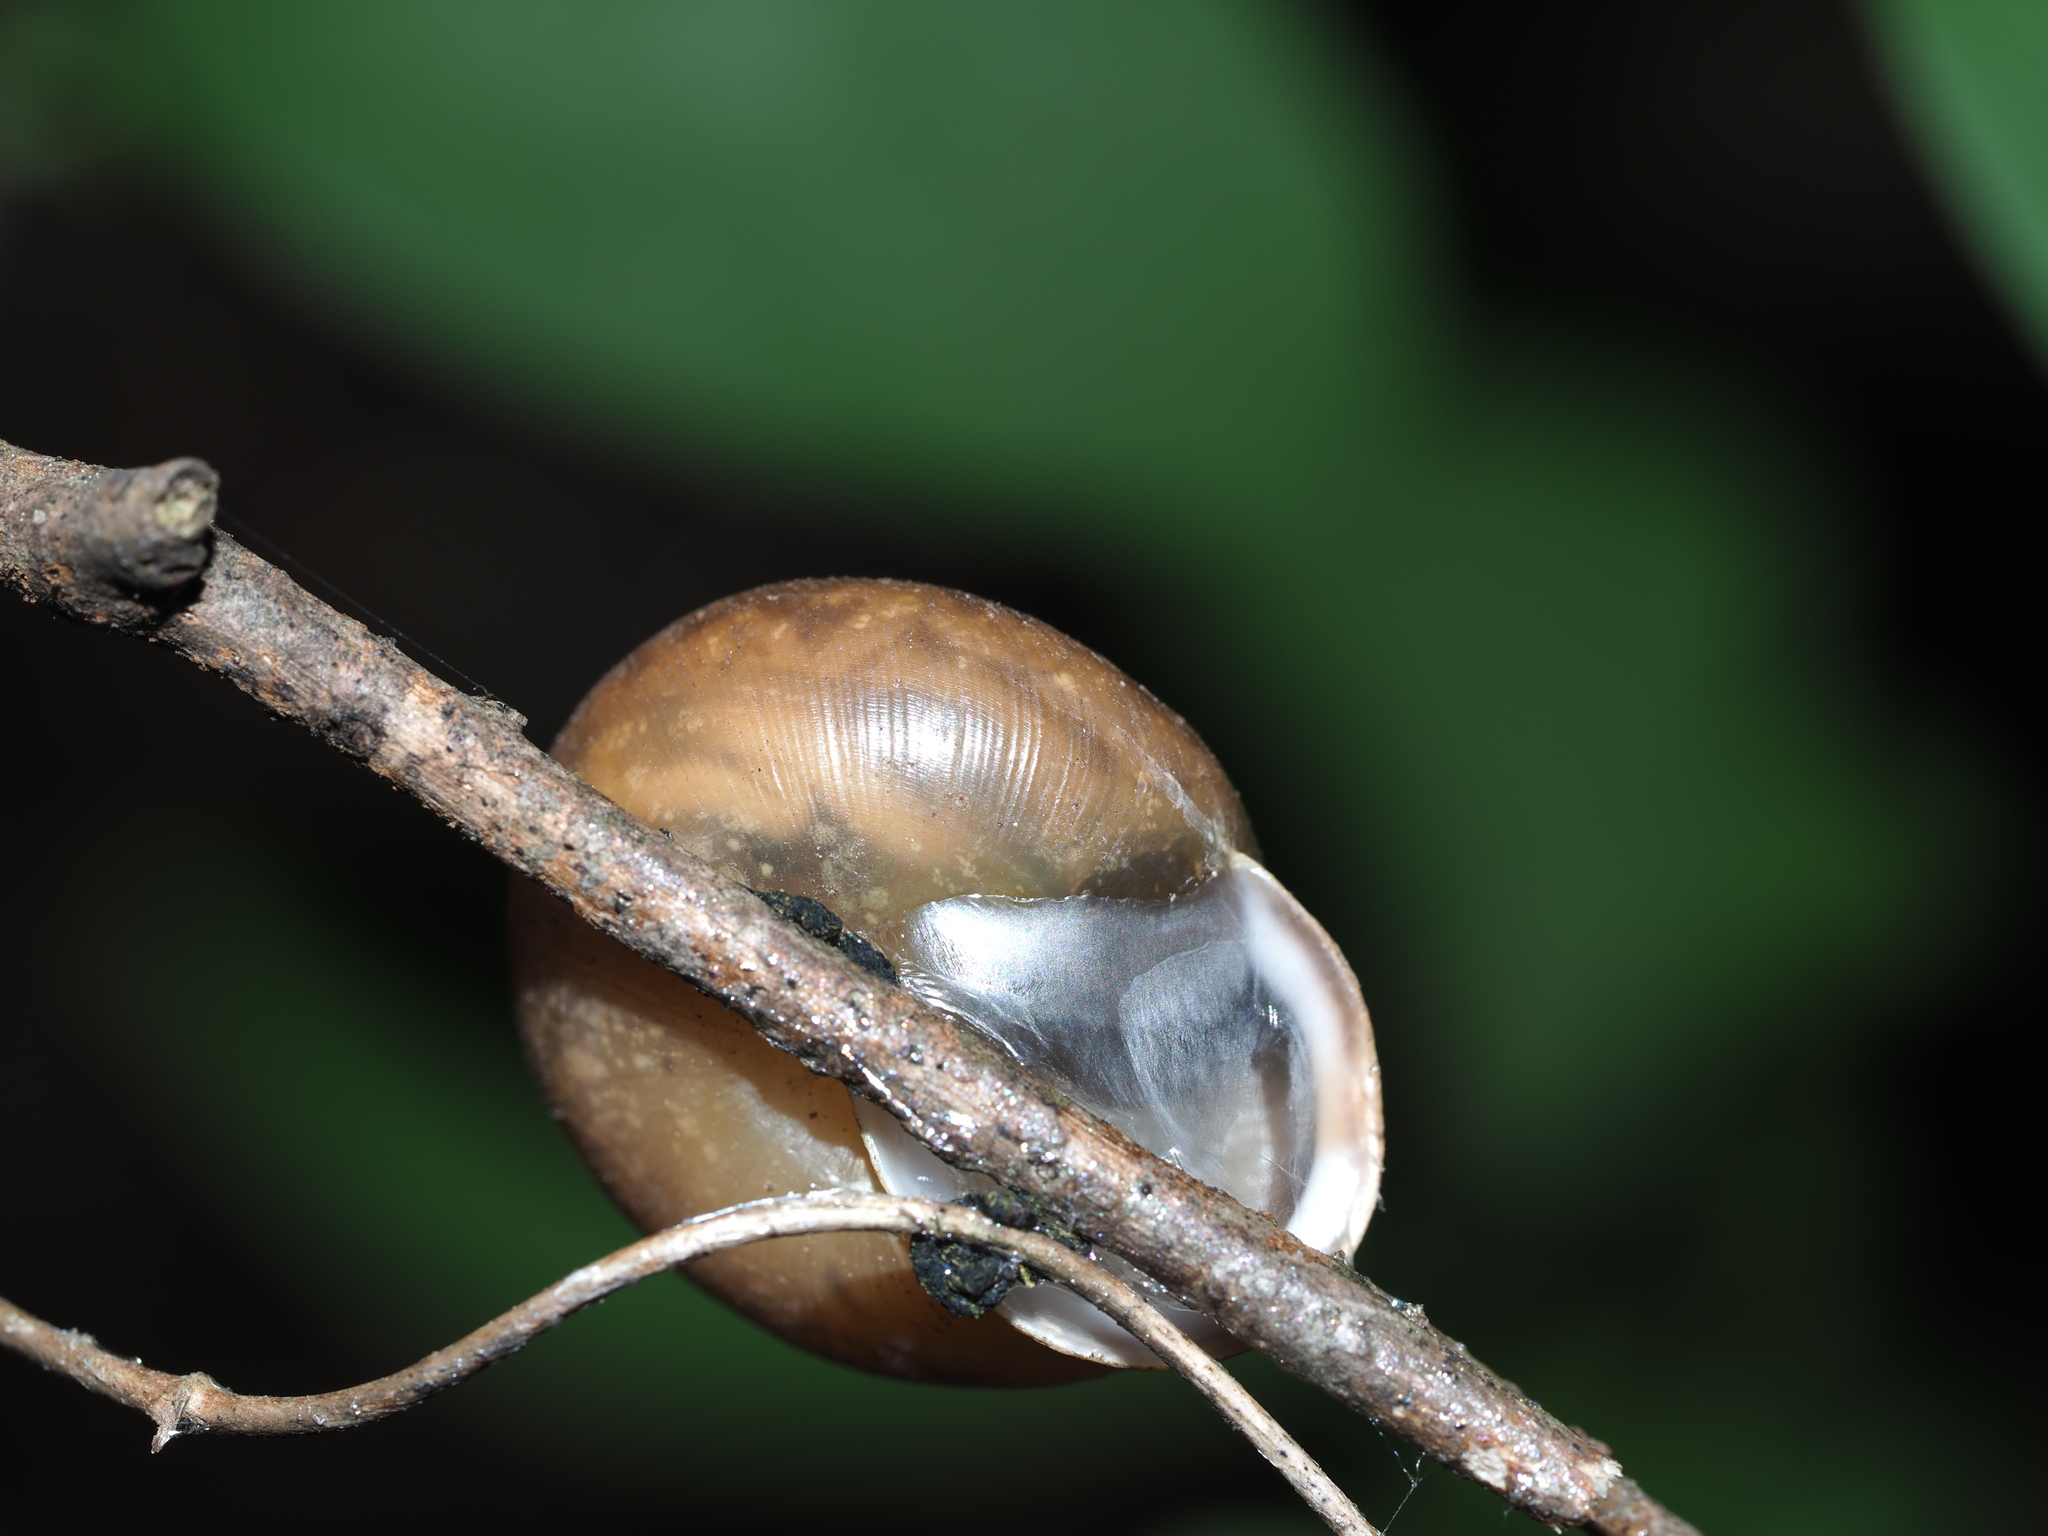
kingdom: Animalia
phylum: Mollusca
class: Gastropoda
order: Stylommatophora
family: Polygyridae
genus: Mesodon
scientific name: Mesodon thyroidus
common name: White-lip globe
